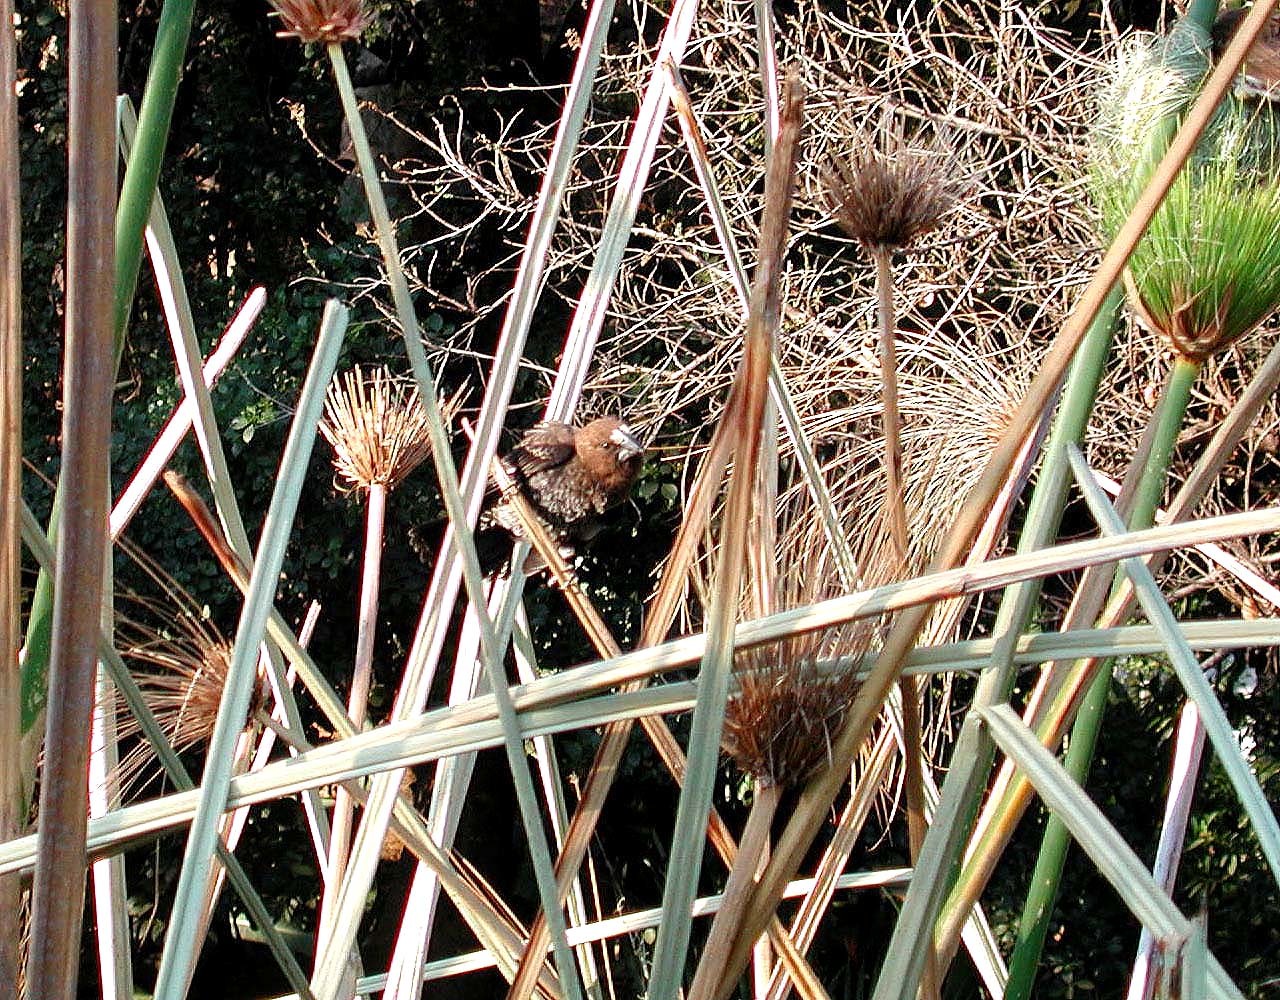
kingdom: Animalia
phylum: Chordata
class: Aves
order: Passeriformes
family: Ploceidae
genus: Amblyospiza
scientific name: Amblyospiza albifrons
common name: Thick-billed weaver
